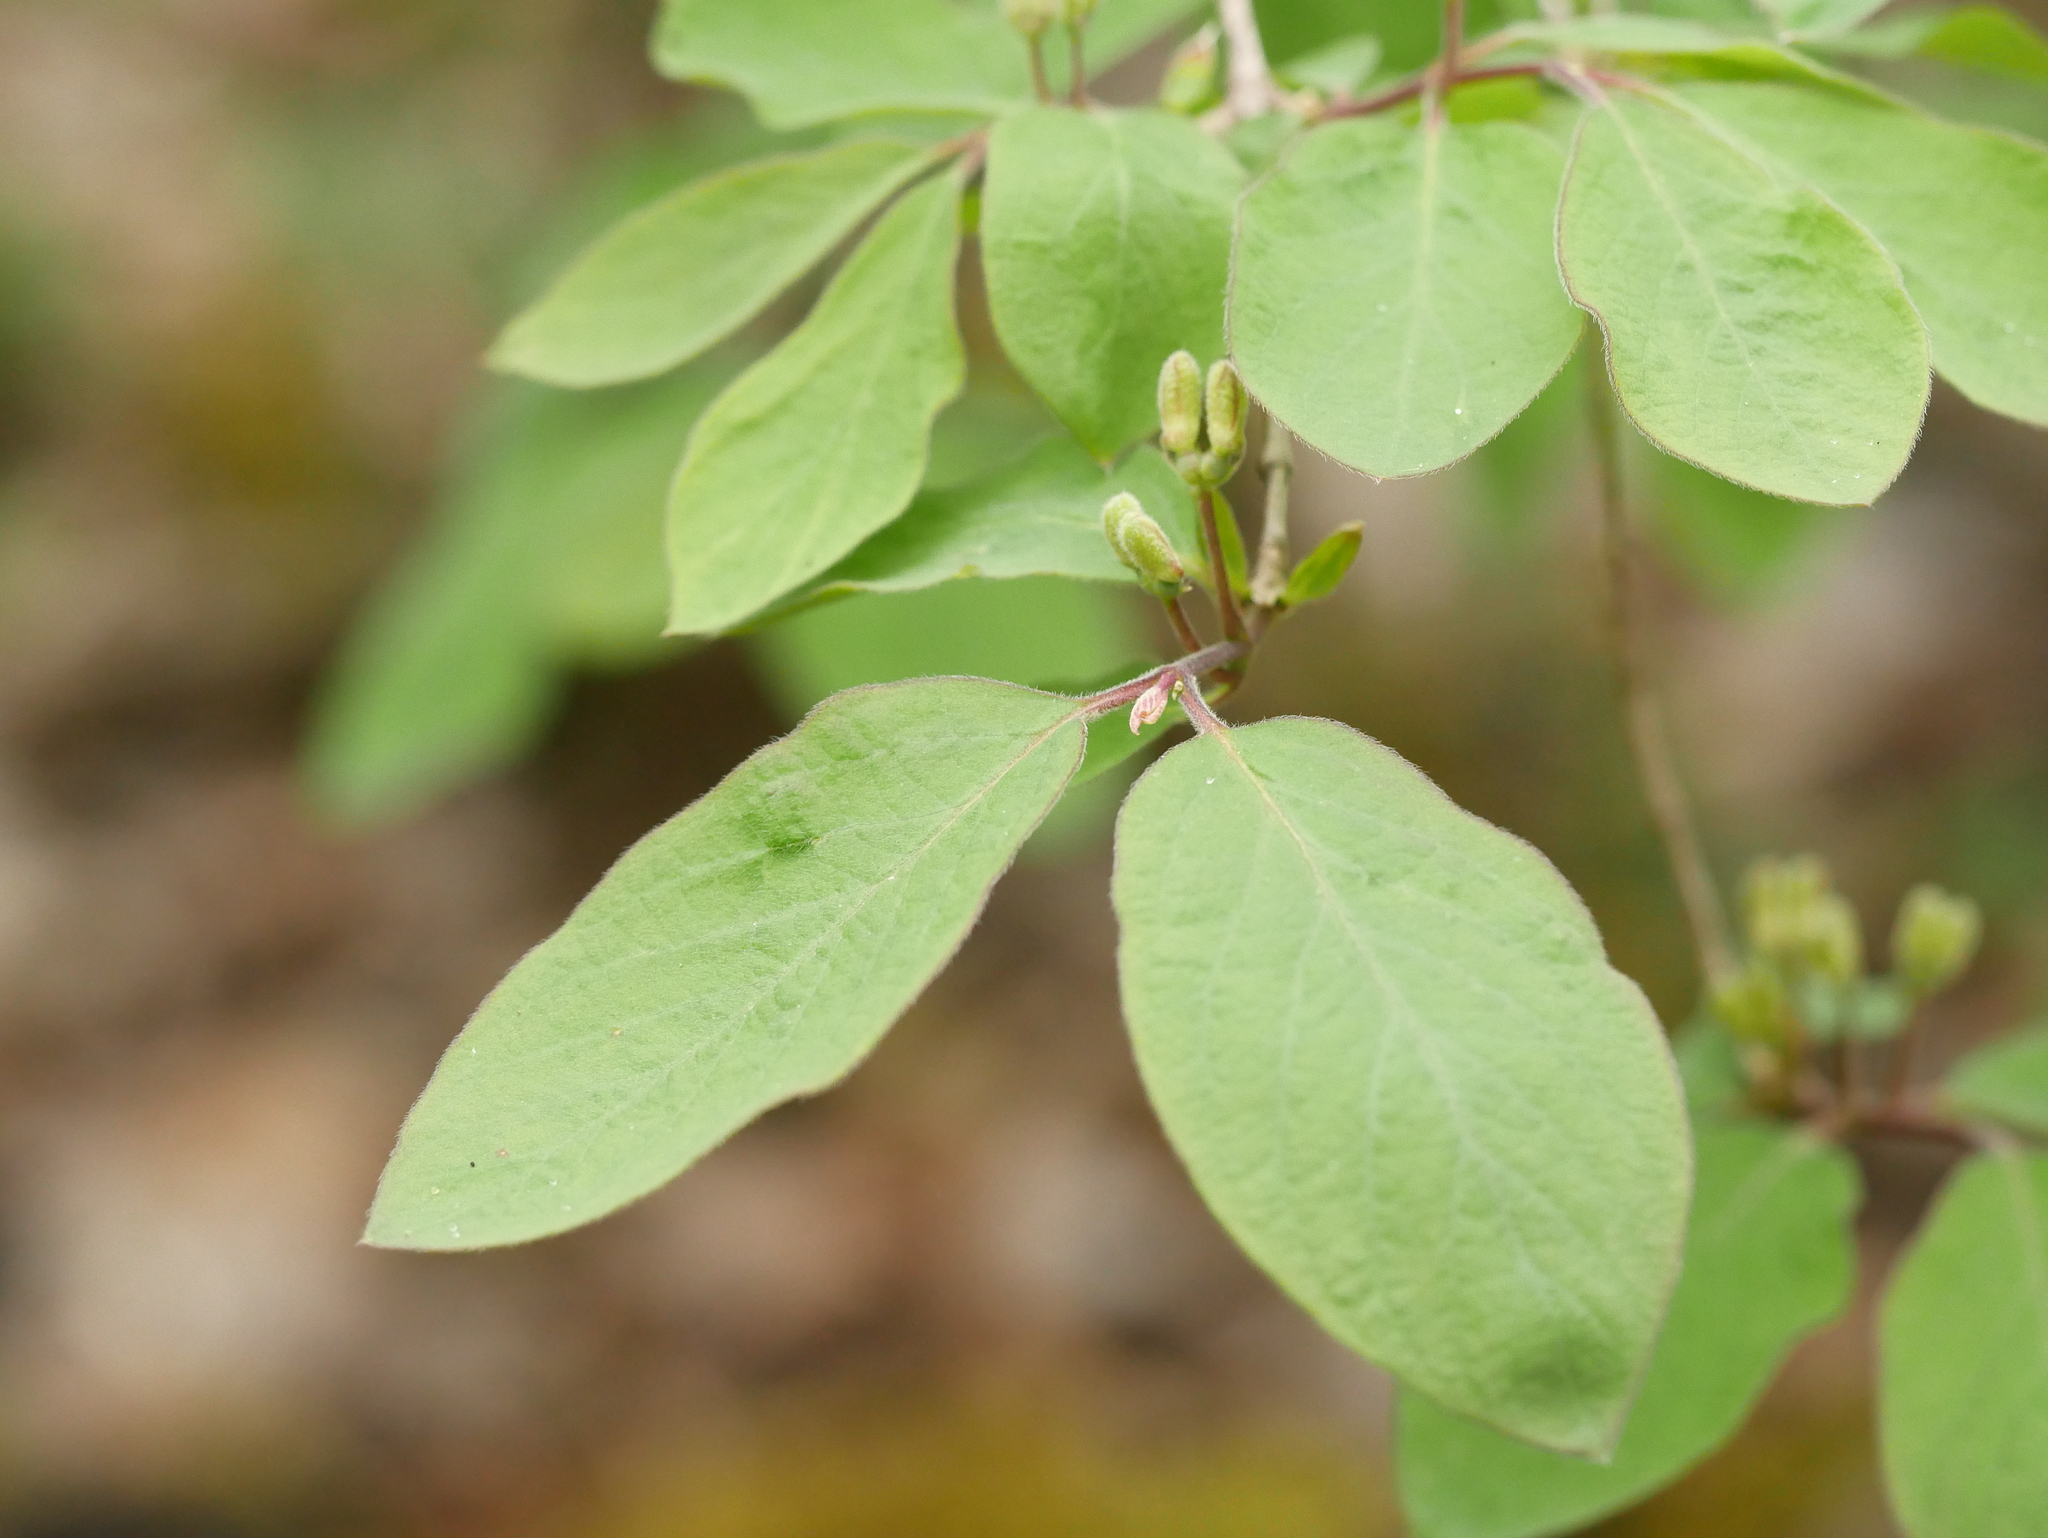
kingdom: Plantae
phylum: Tracheophyta
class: Magnoliopsida
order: Dipsacales
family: Caprifoliaceae
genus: Lonicera
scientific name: Lonicera xylosteum
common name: Fly honeysuckle
